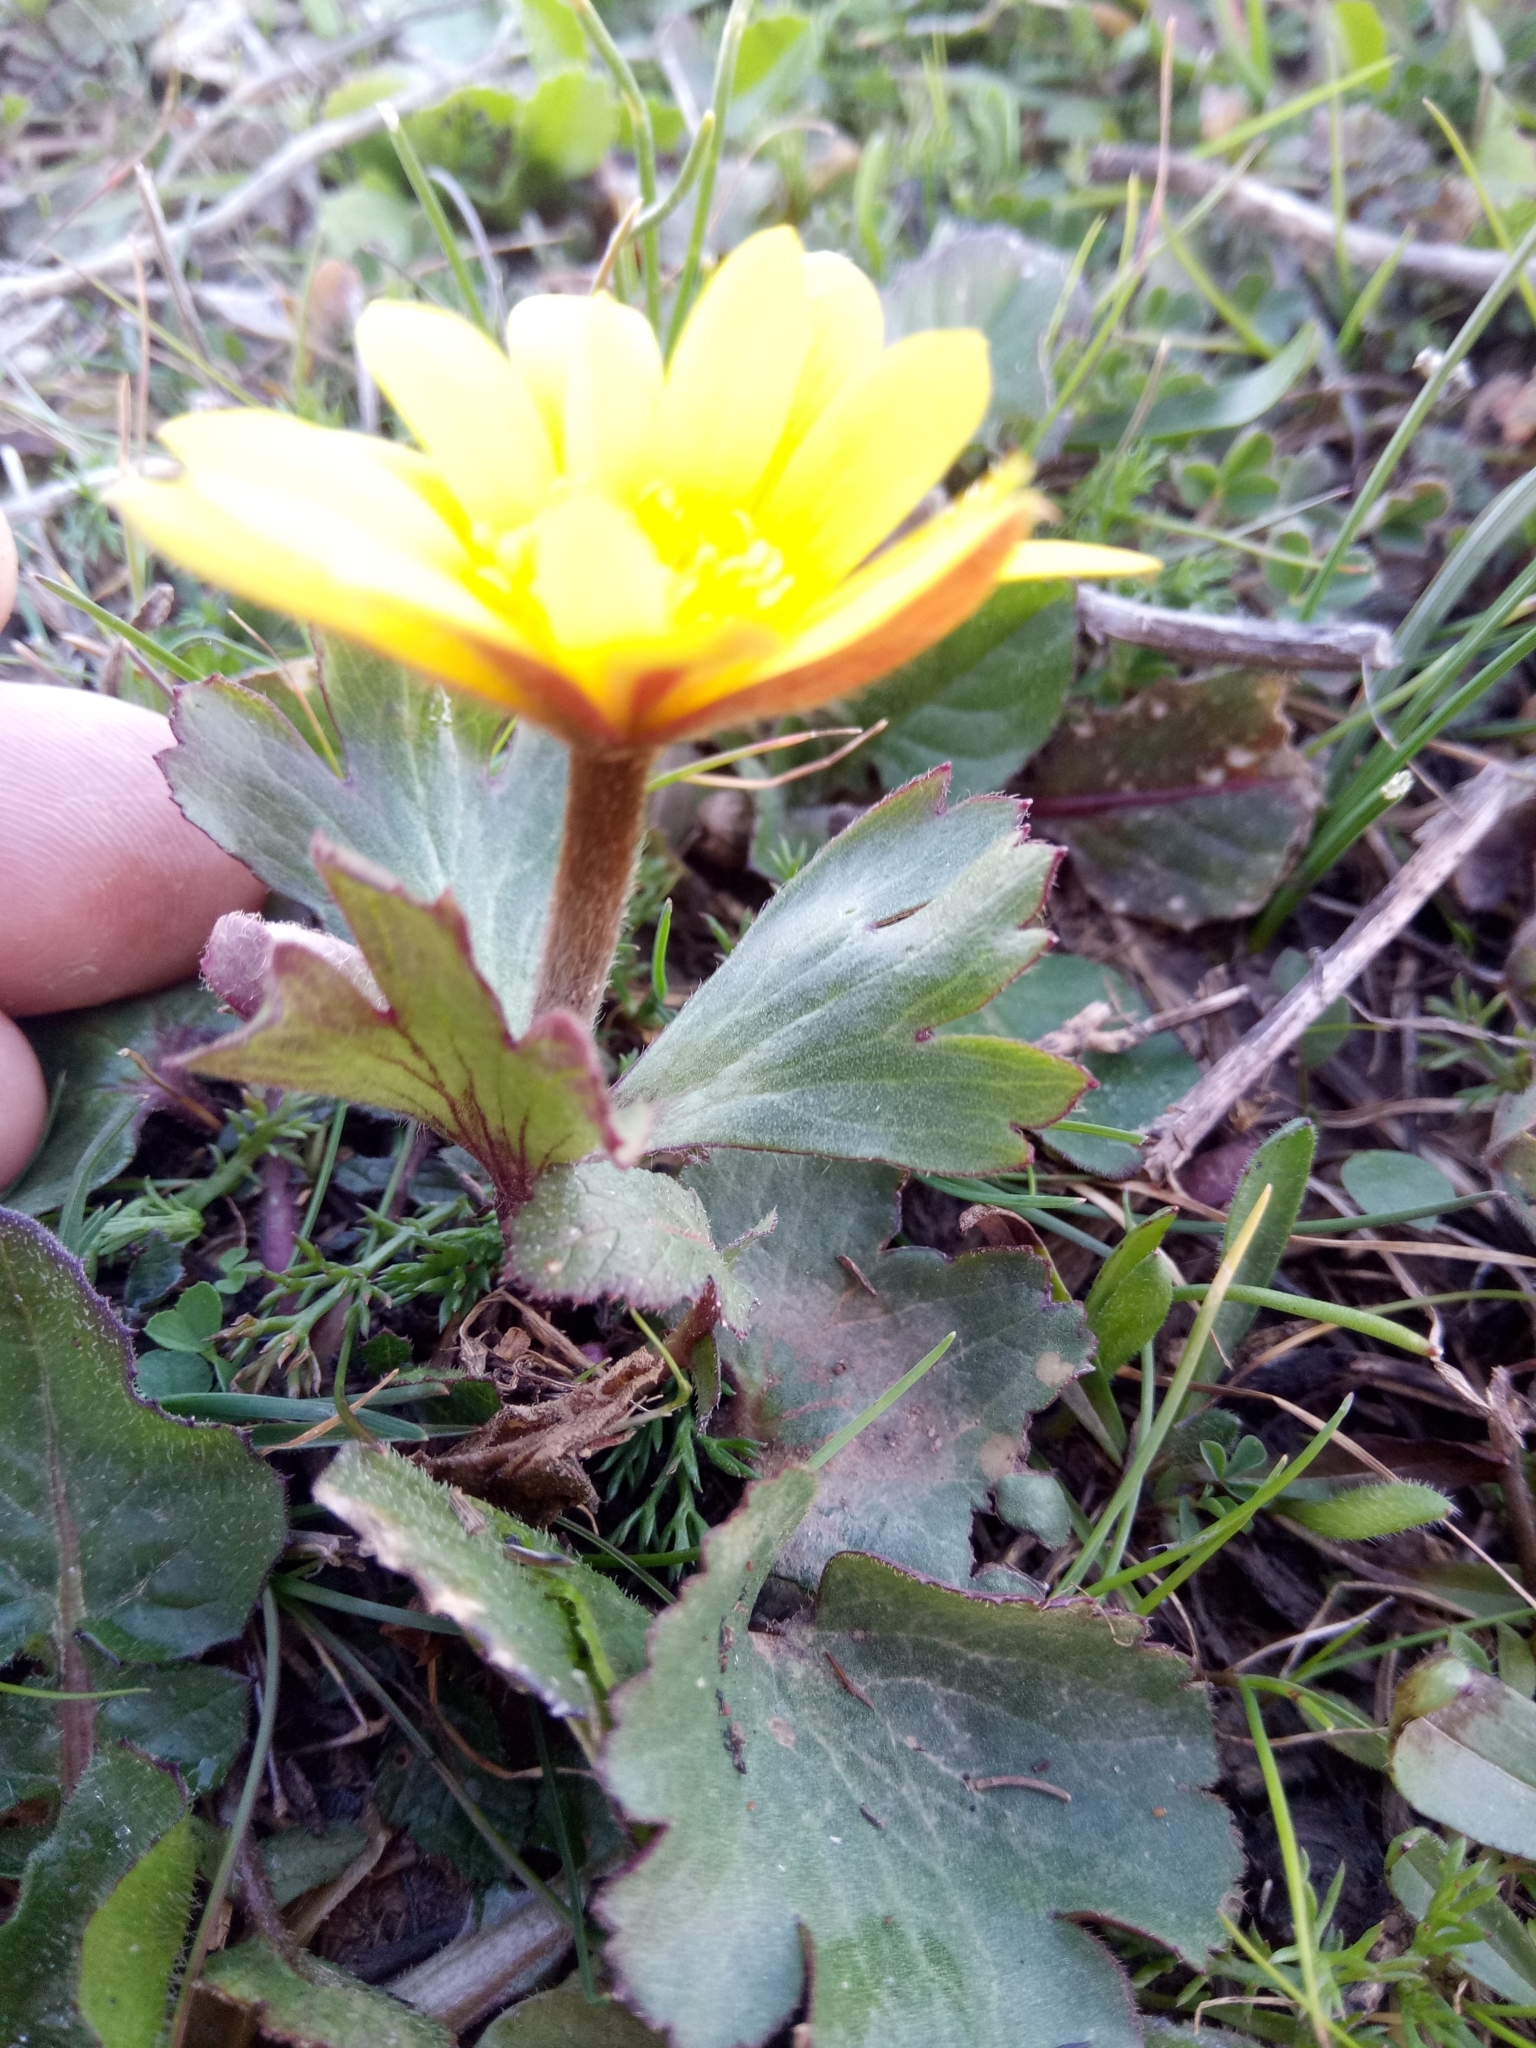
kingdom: Plantae
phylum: Tracheophyta
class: Magnoliopsida
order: Ranunculales
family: Ranunculaceae
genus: Anemone
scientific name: Anemone palmata
